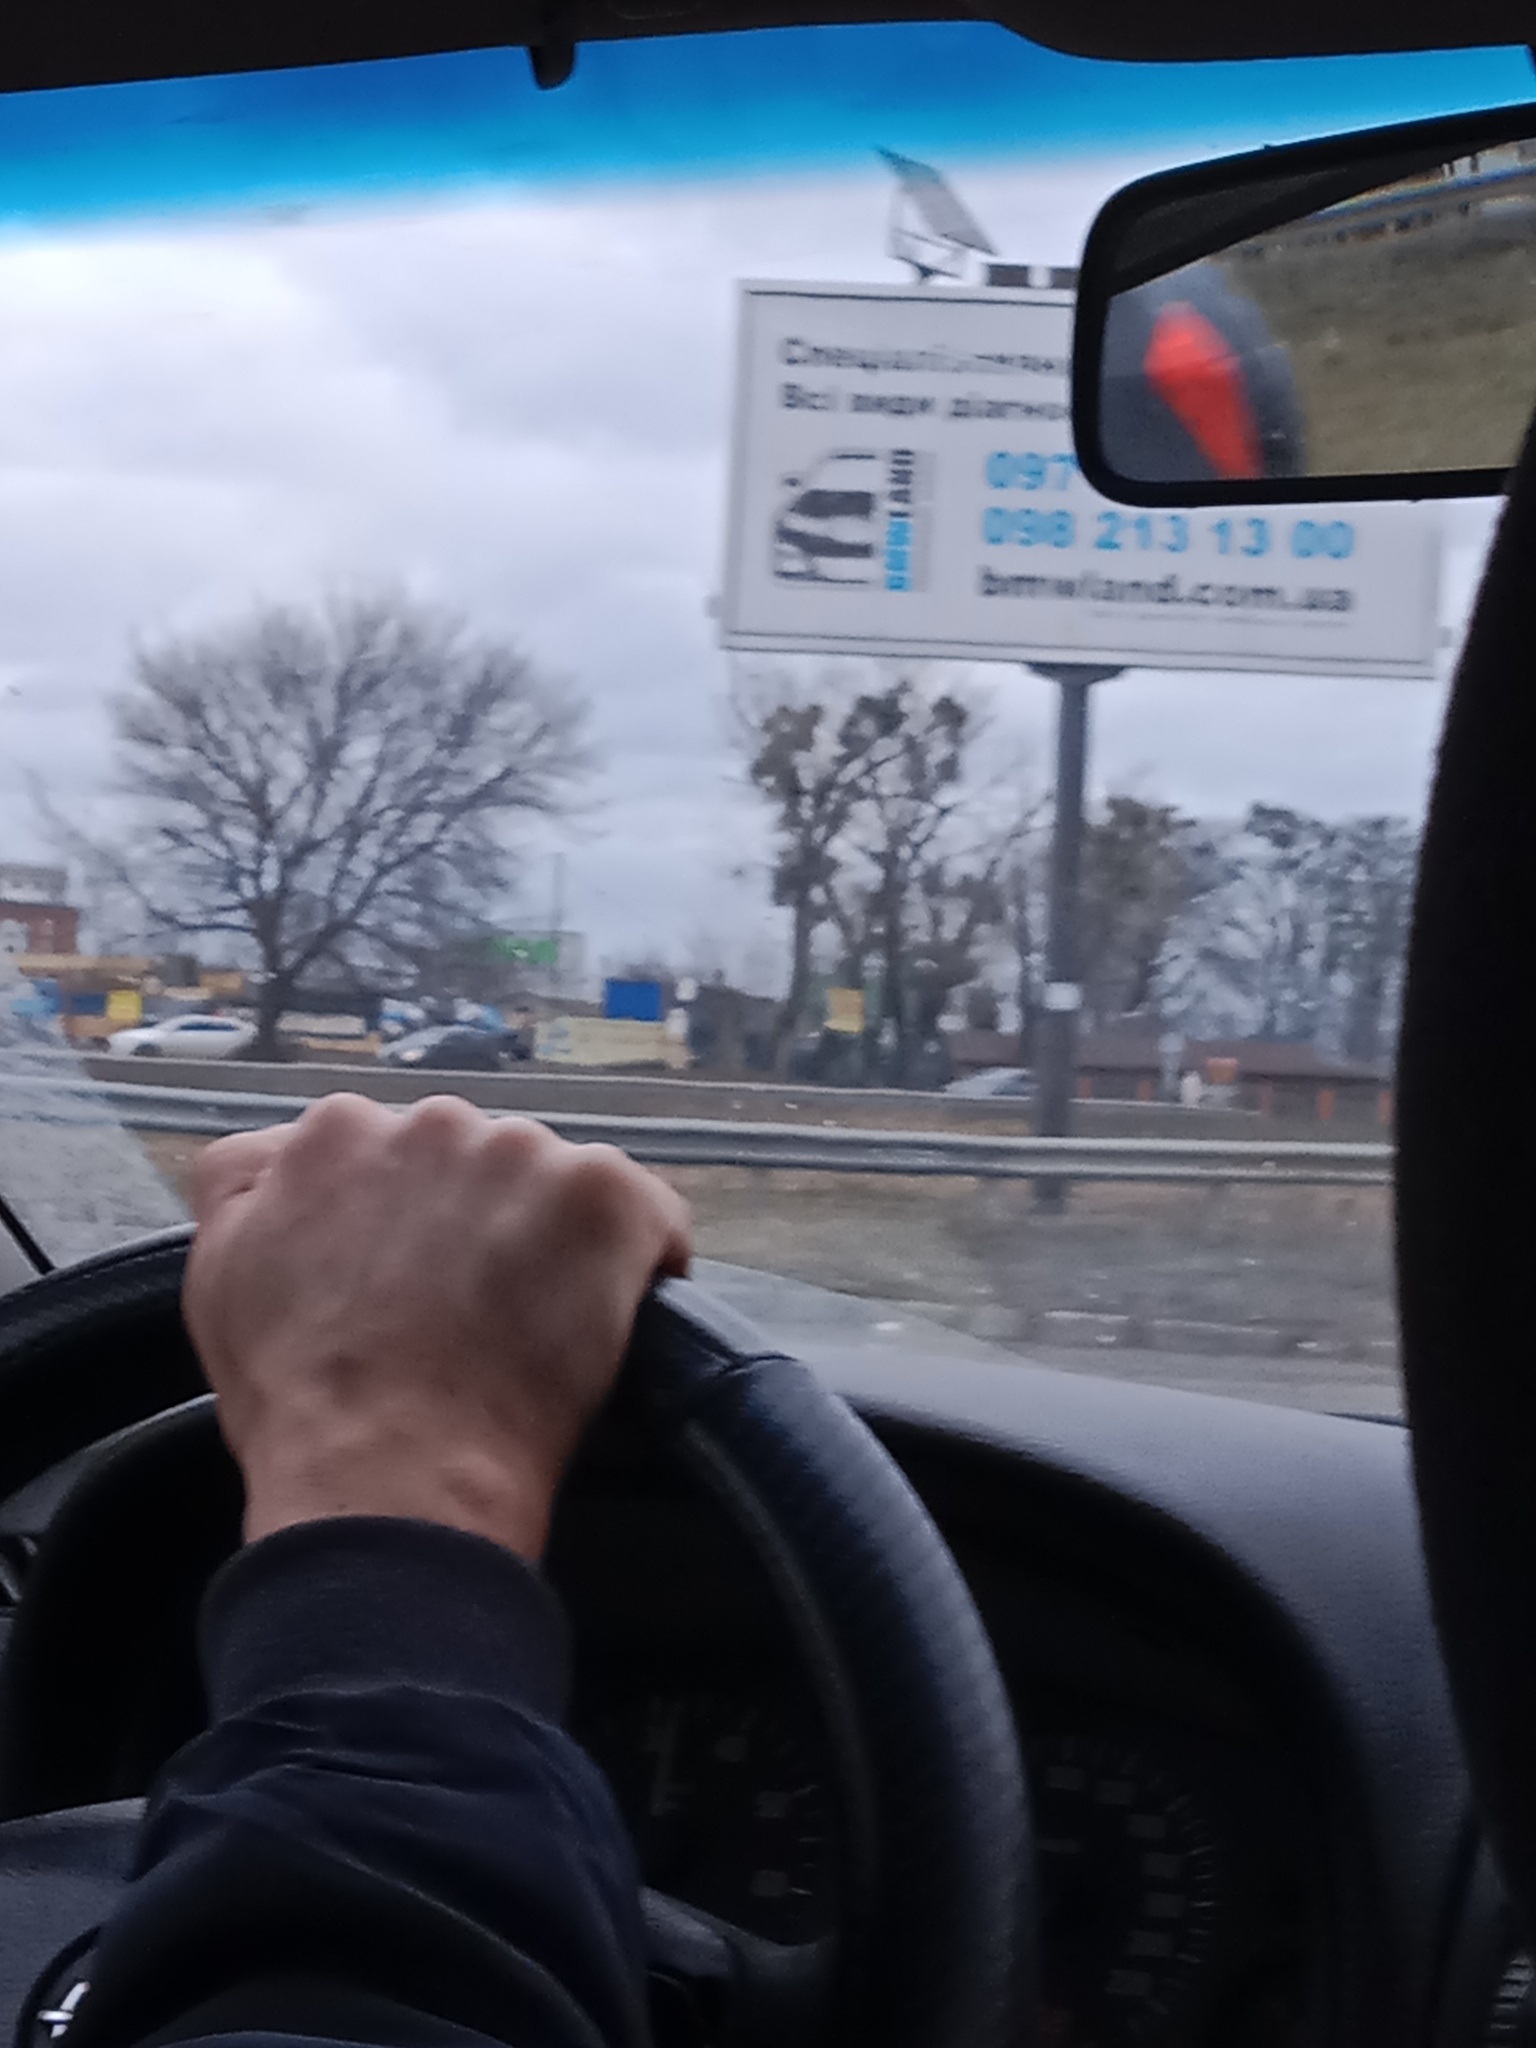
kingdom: Plantae
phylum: Tracheophyta
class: Magnoliopsida
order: Santalales
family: Viscaceae
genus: Viscum
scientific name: Viscum album
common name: Mistletoe
